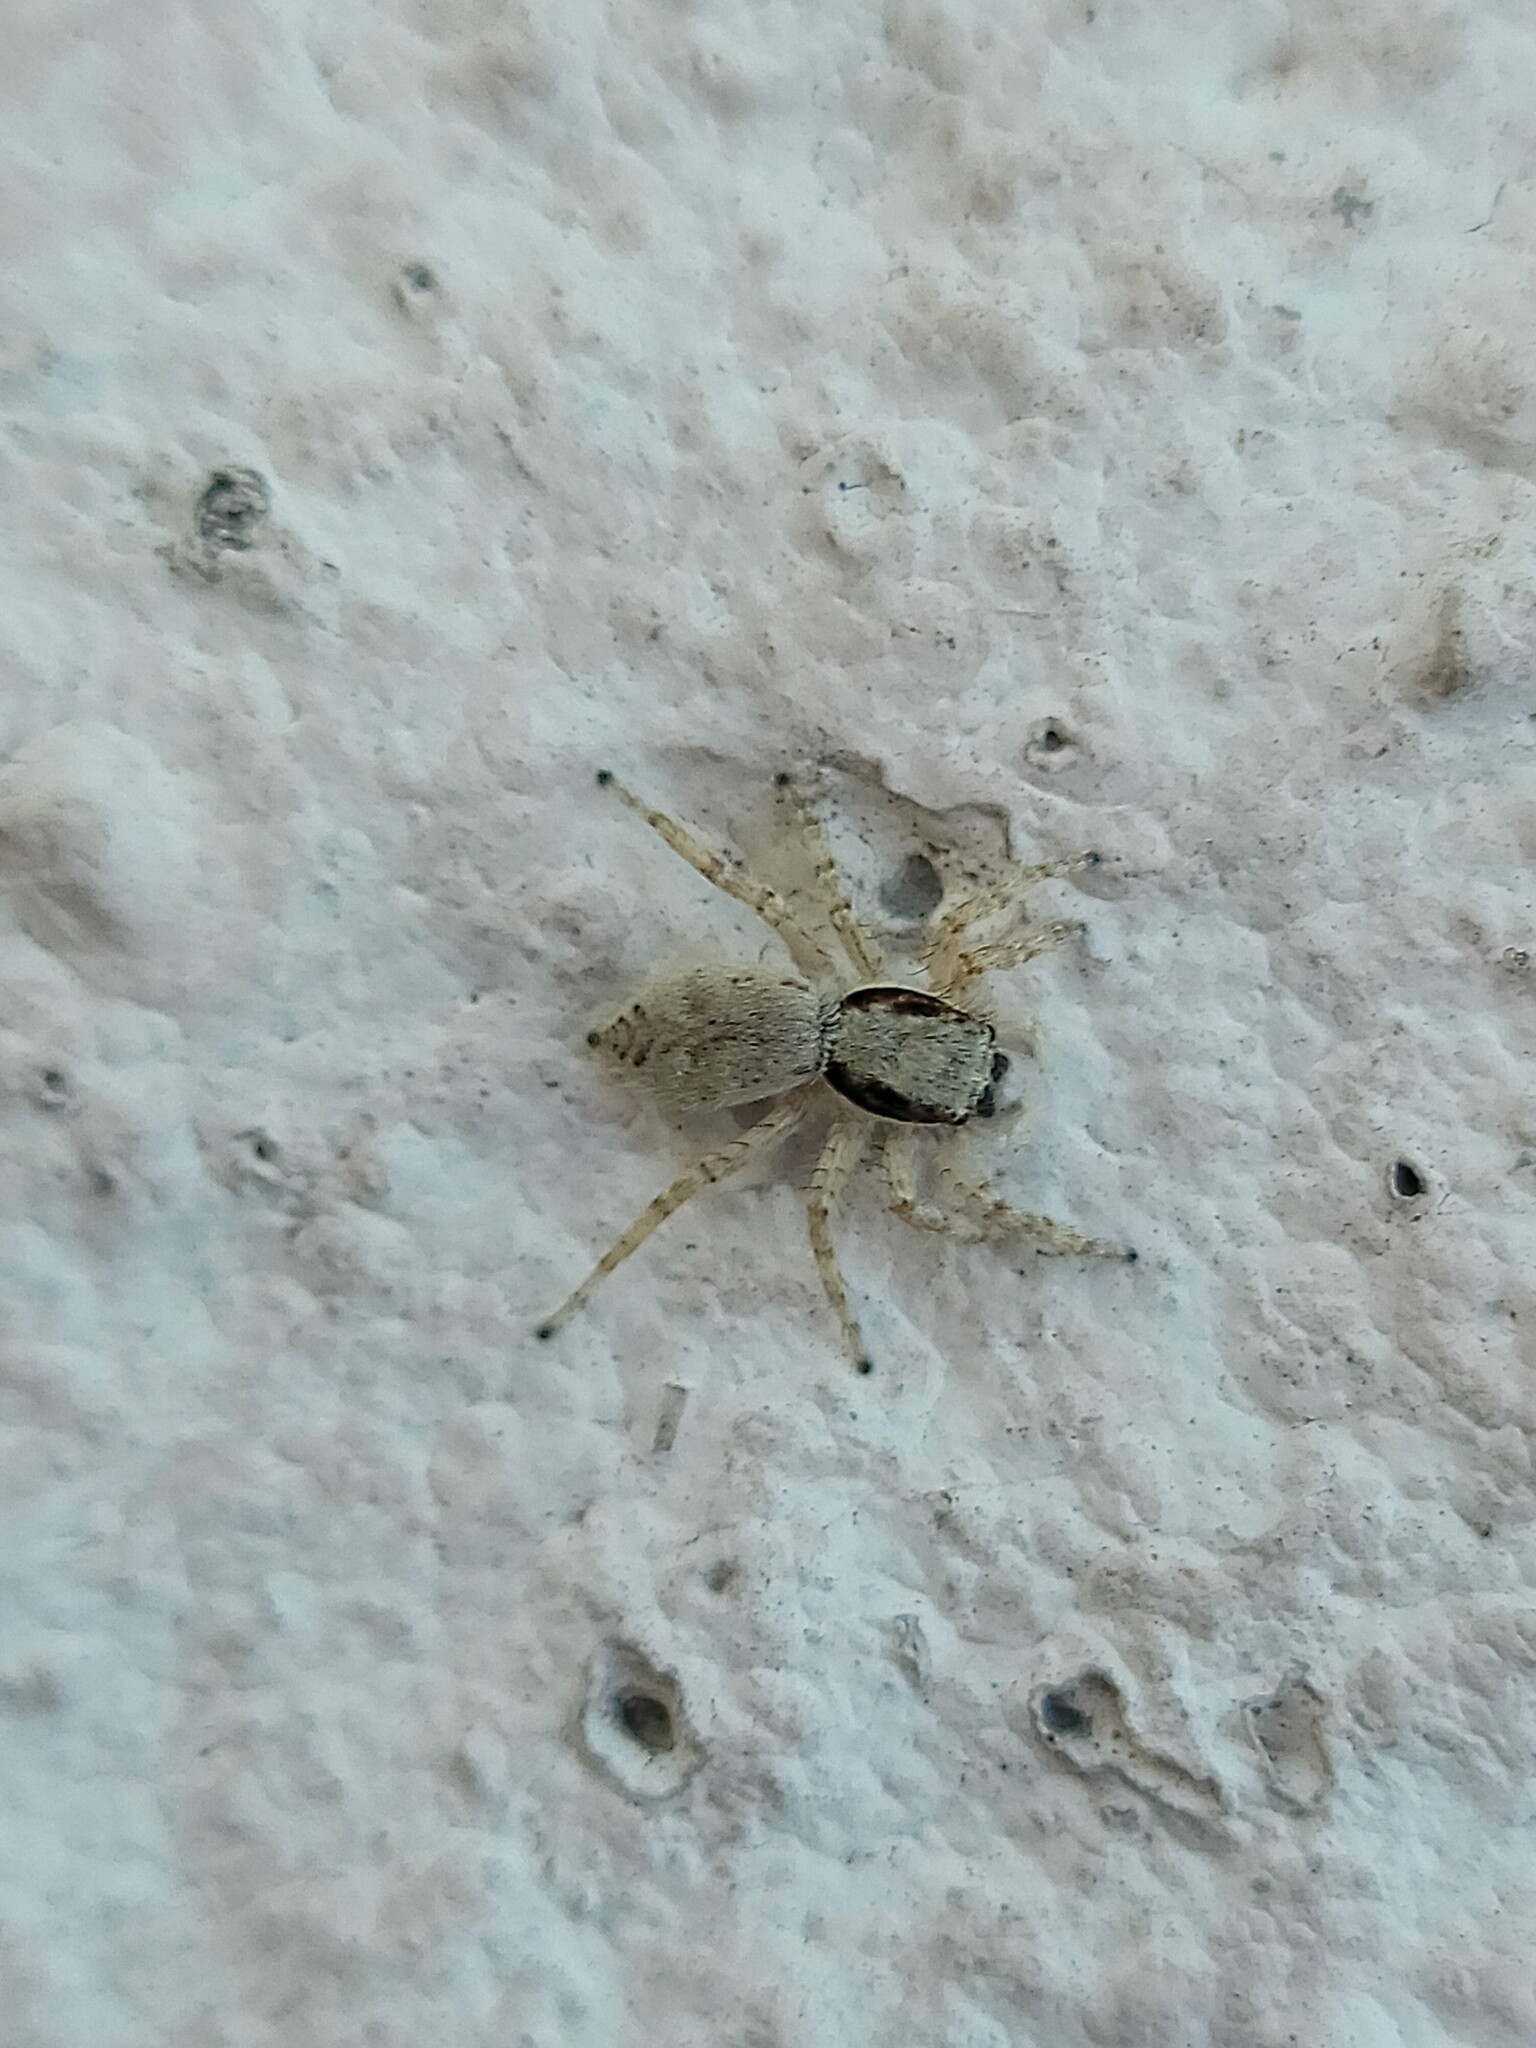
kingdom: Animalia
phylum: Arthropoda
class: Arachnida
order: Araneae
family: Salticidae
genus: Menemerus
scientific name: Menemerus bivittatus
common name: Gray wall jumper
